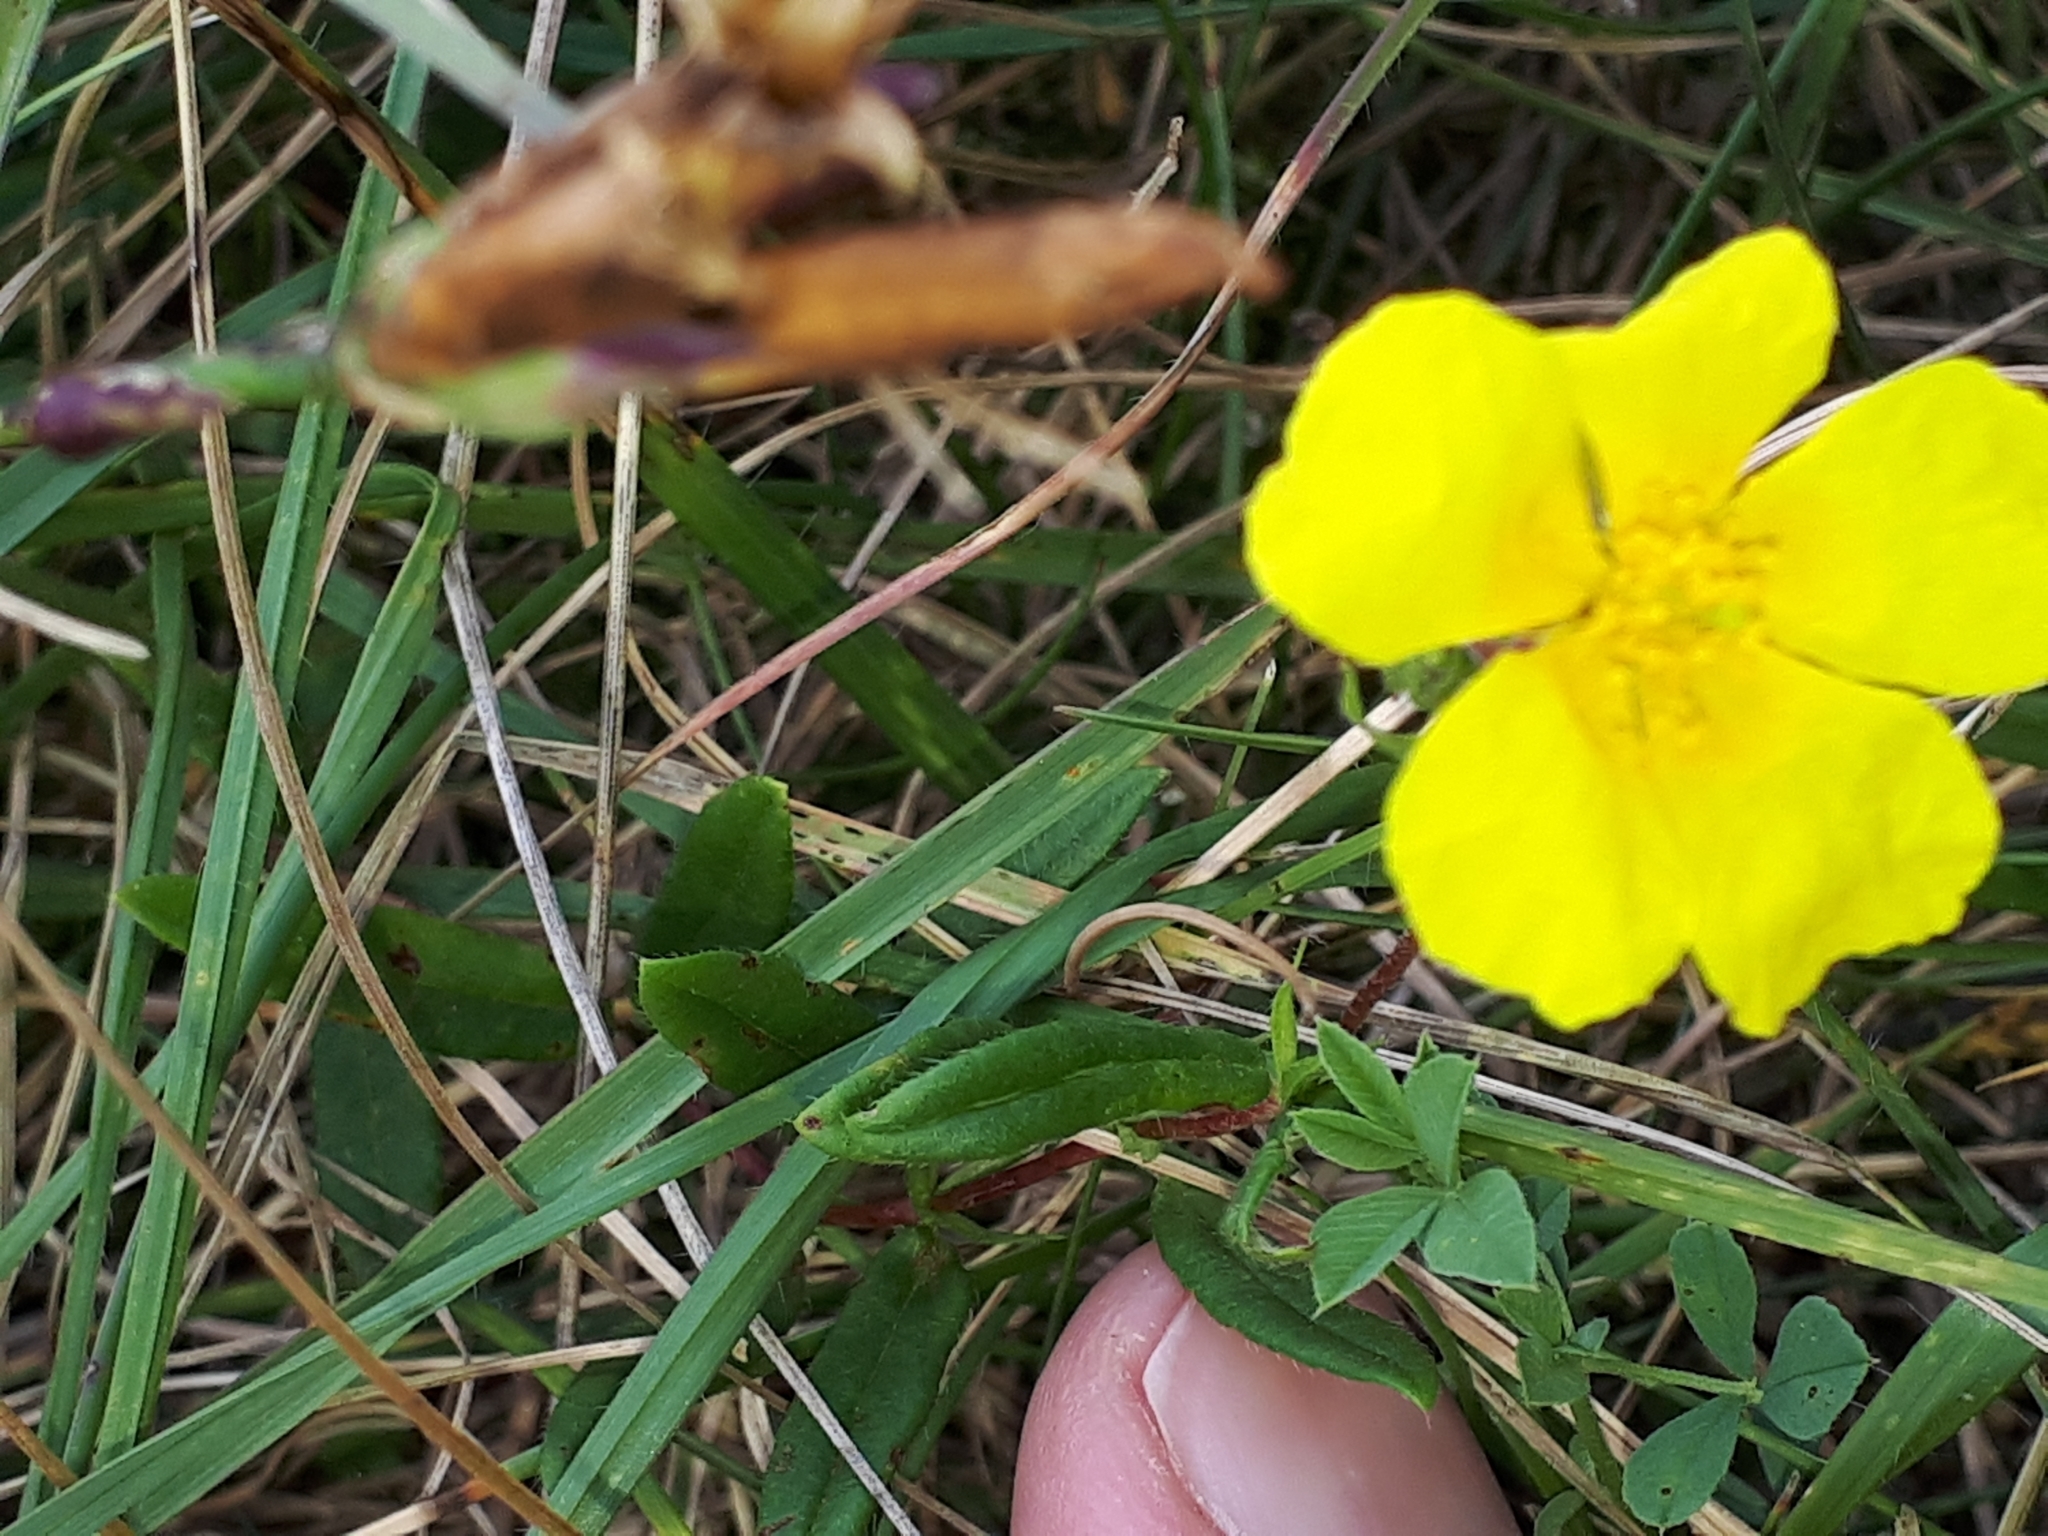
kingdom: Plantae
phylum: Tracheophyta
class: Magnoliopsida
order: Malvales
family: Cistaceae
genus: Helianthemum
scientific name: Helianthemum nummularium
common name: Common rock-rose
